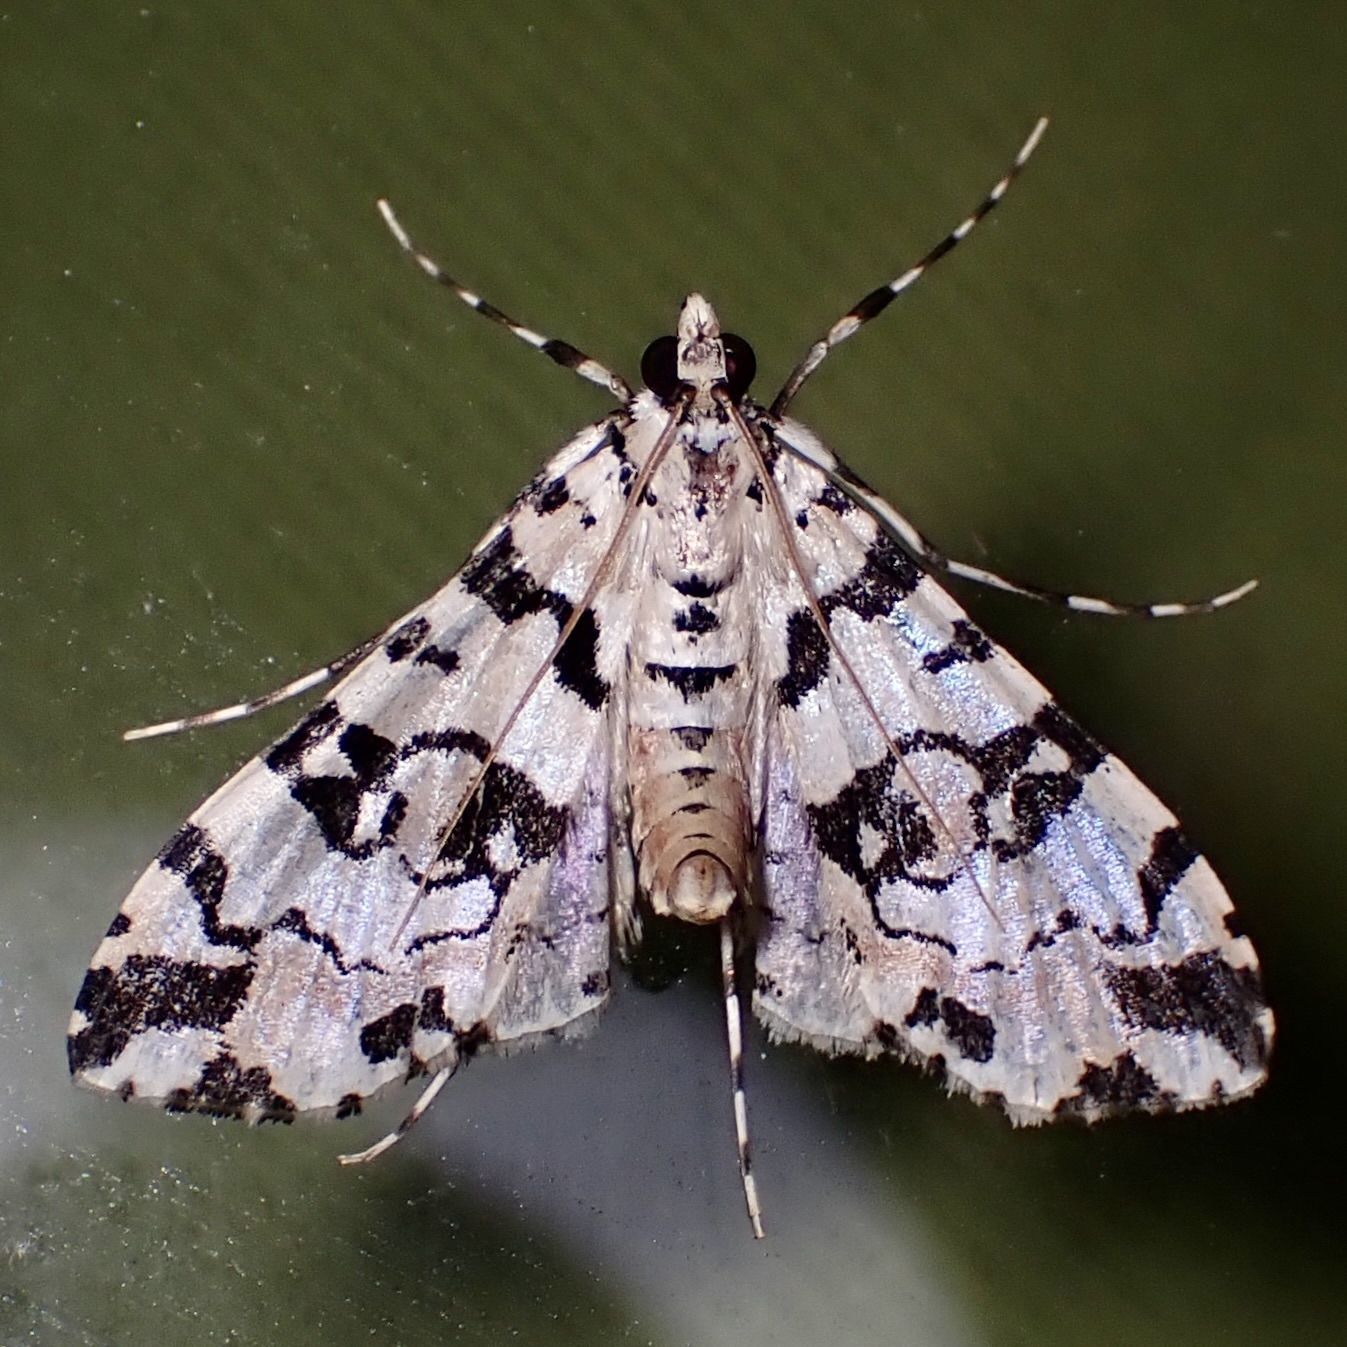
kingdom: Animalia
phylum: Arthropoda
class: Insecta
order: Lepidoptera
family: Crambidae
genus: Conchylodes
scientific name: Conchylodes bryophilalis
